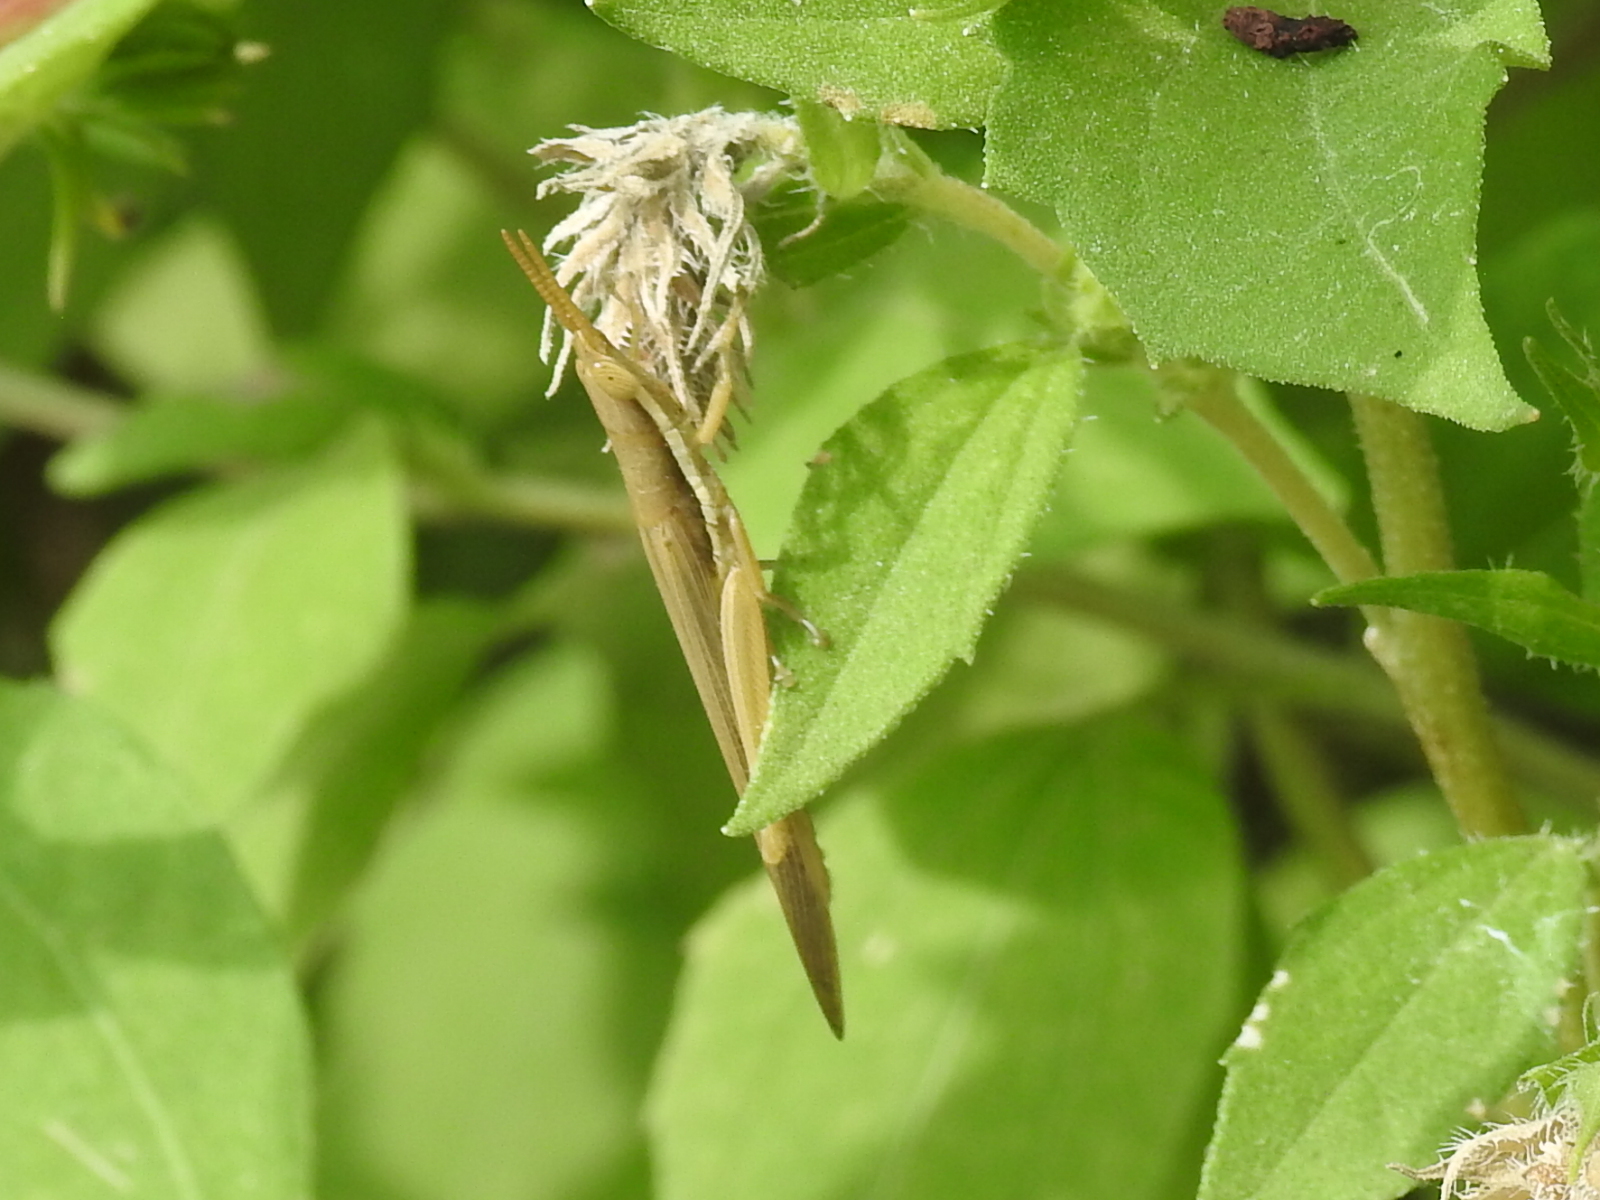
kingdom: Animalia
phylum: Arthropoda
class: Insecta
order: Orthoptera
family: Acrididae
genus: Leptysma
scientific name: Leptysma marginicollis
